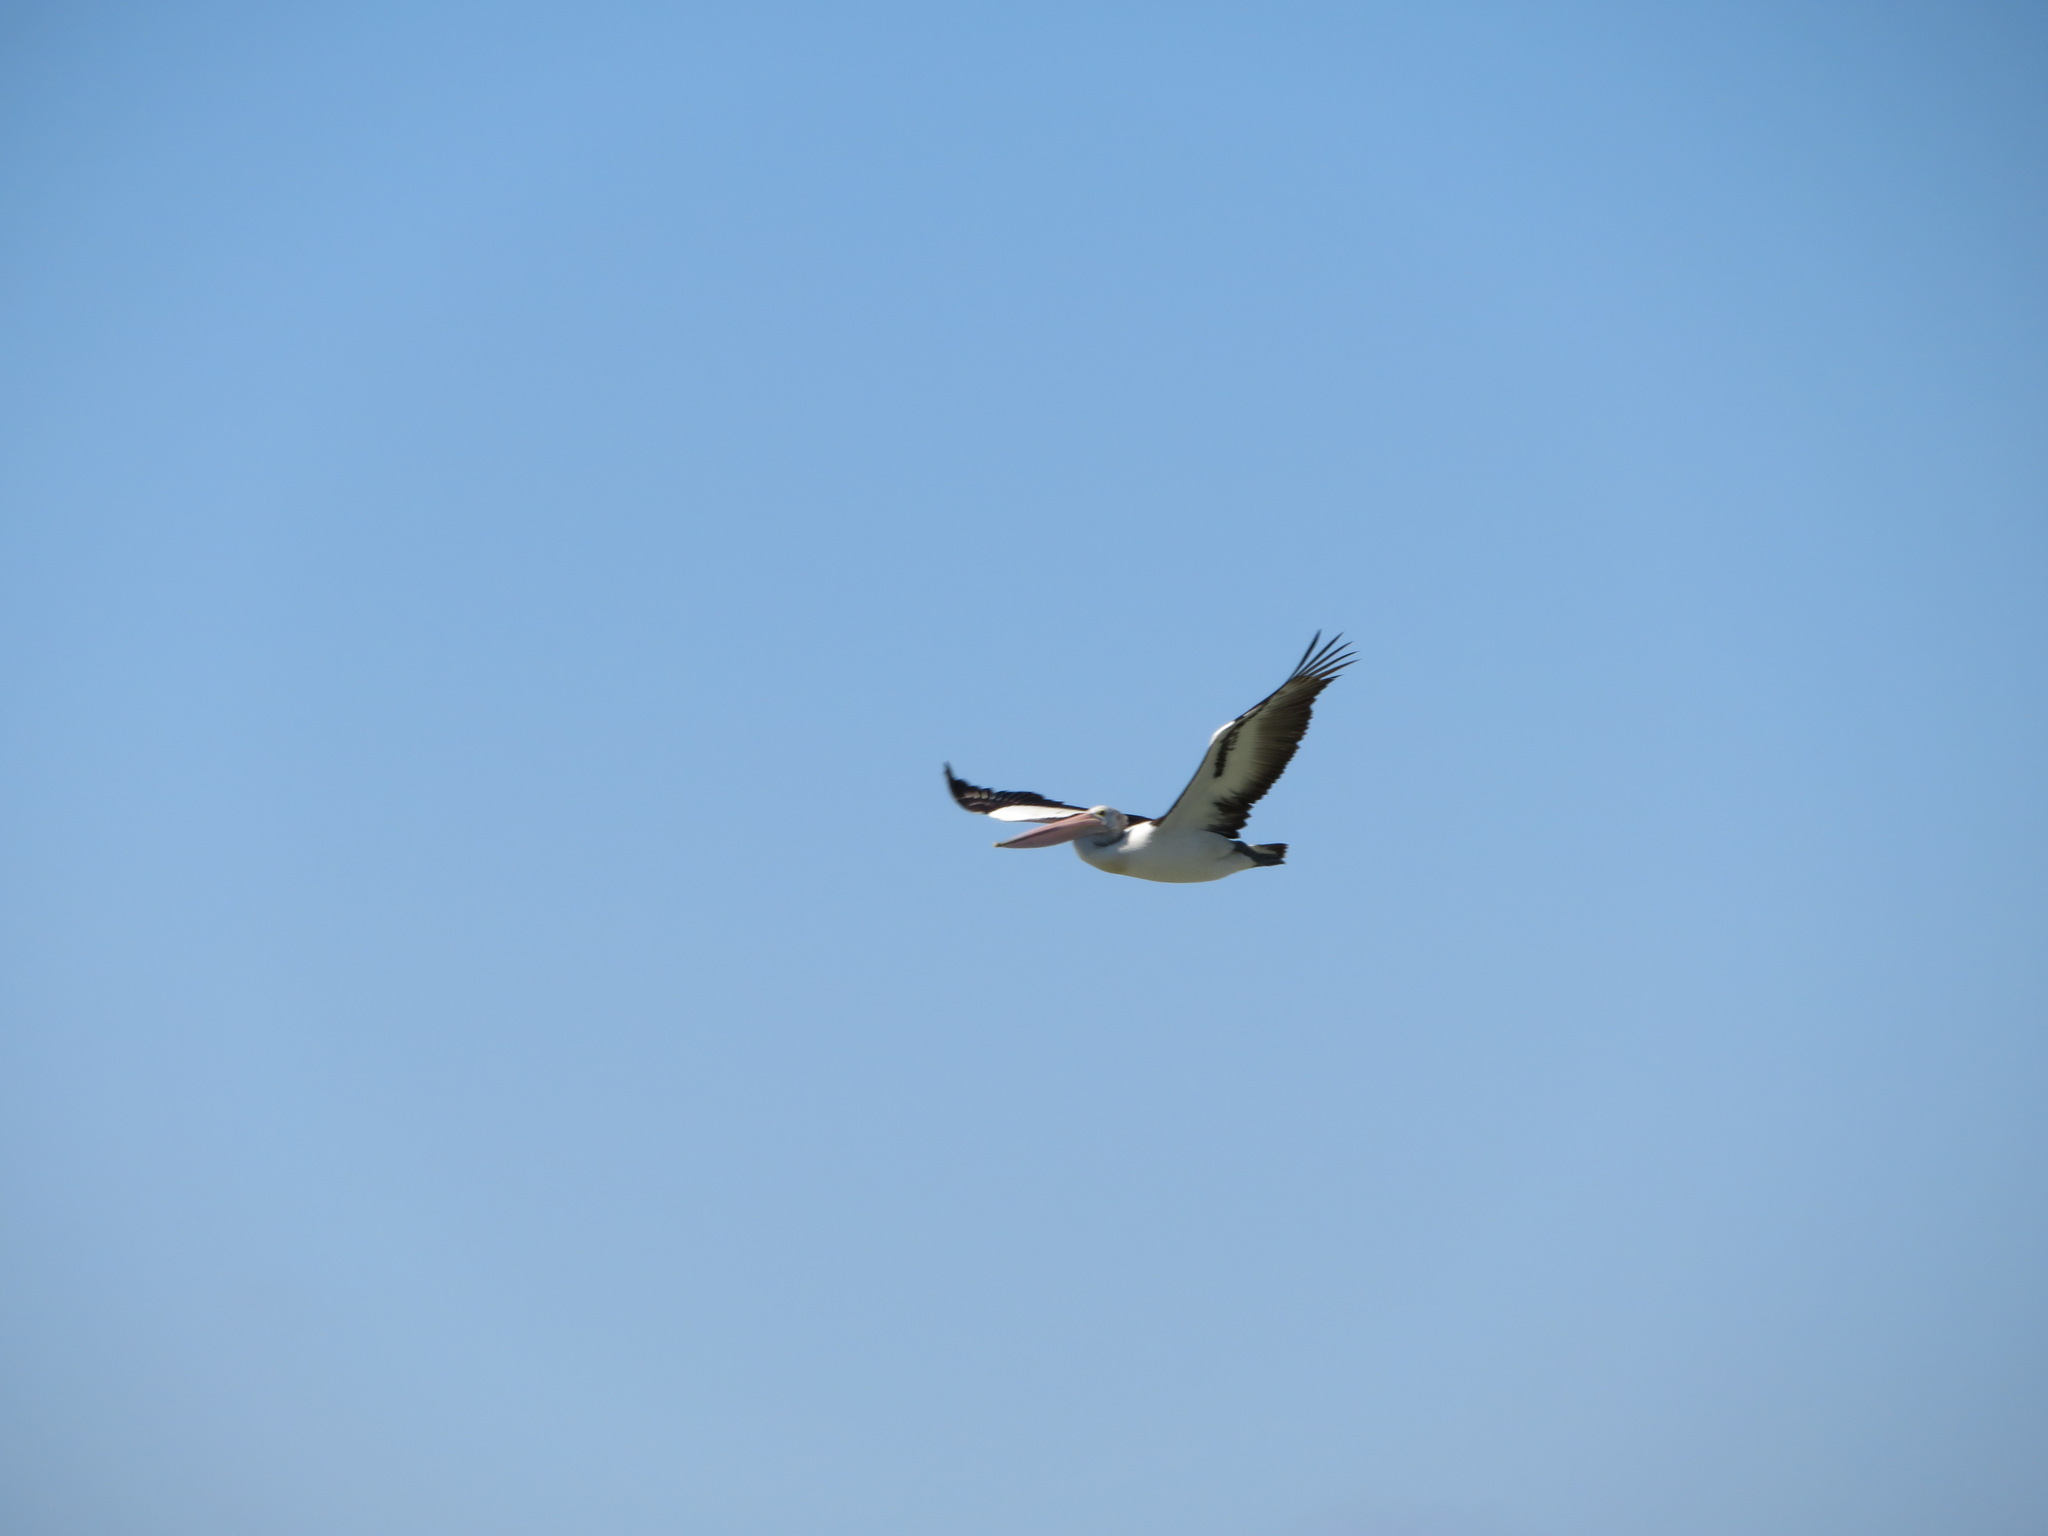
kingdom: Animalia
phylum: Chordata
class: Aves
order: Pelecaniformes
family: Pelecanidae
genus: Pelecanus
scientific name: Pelecanus conspicillatus
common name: Australian pelican
